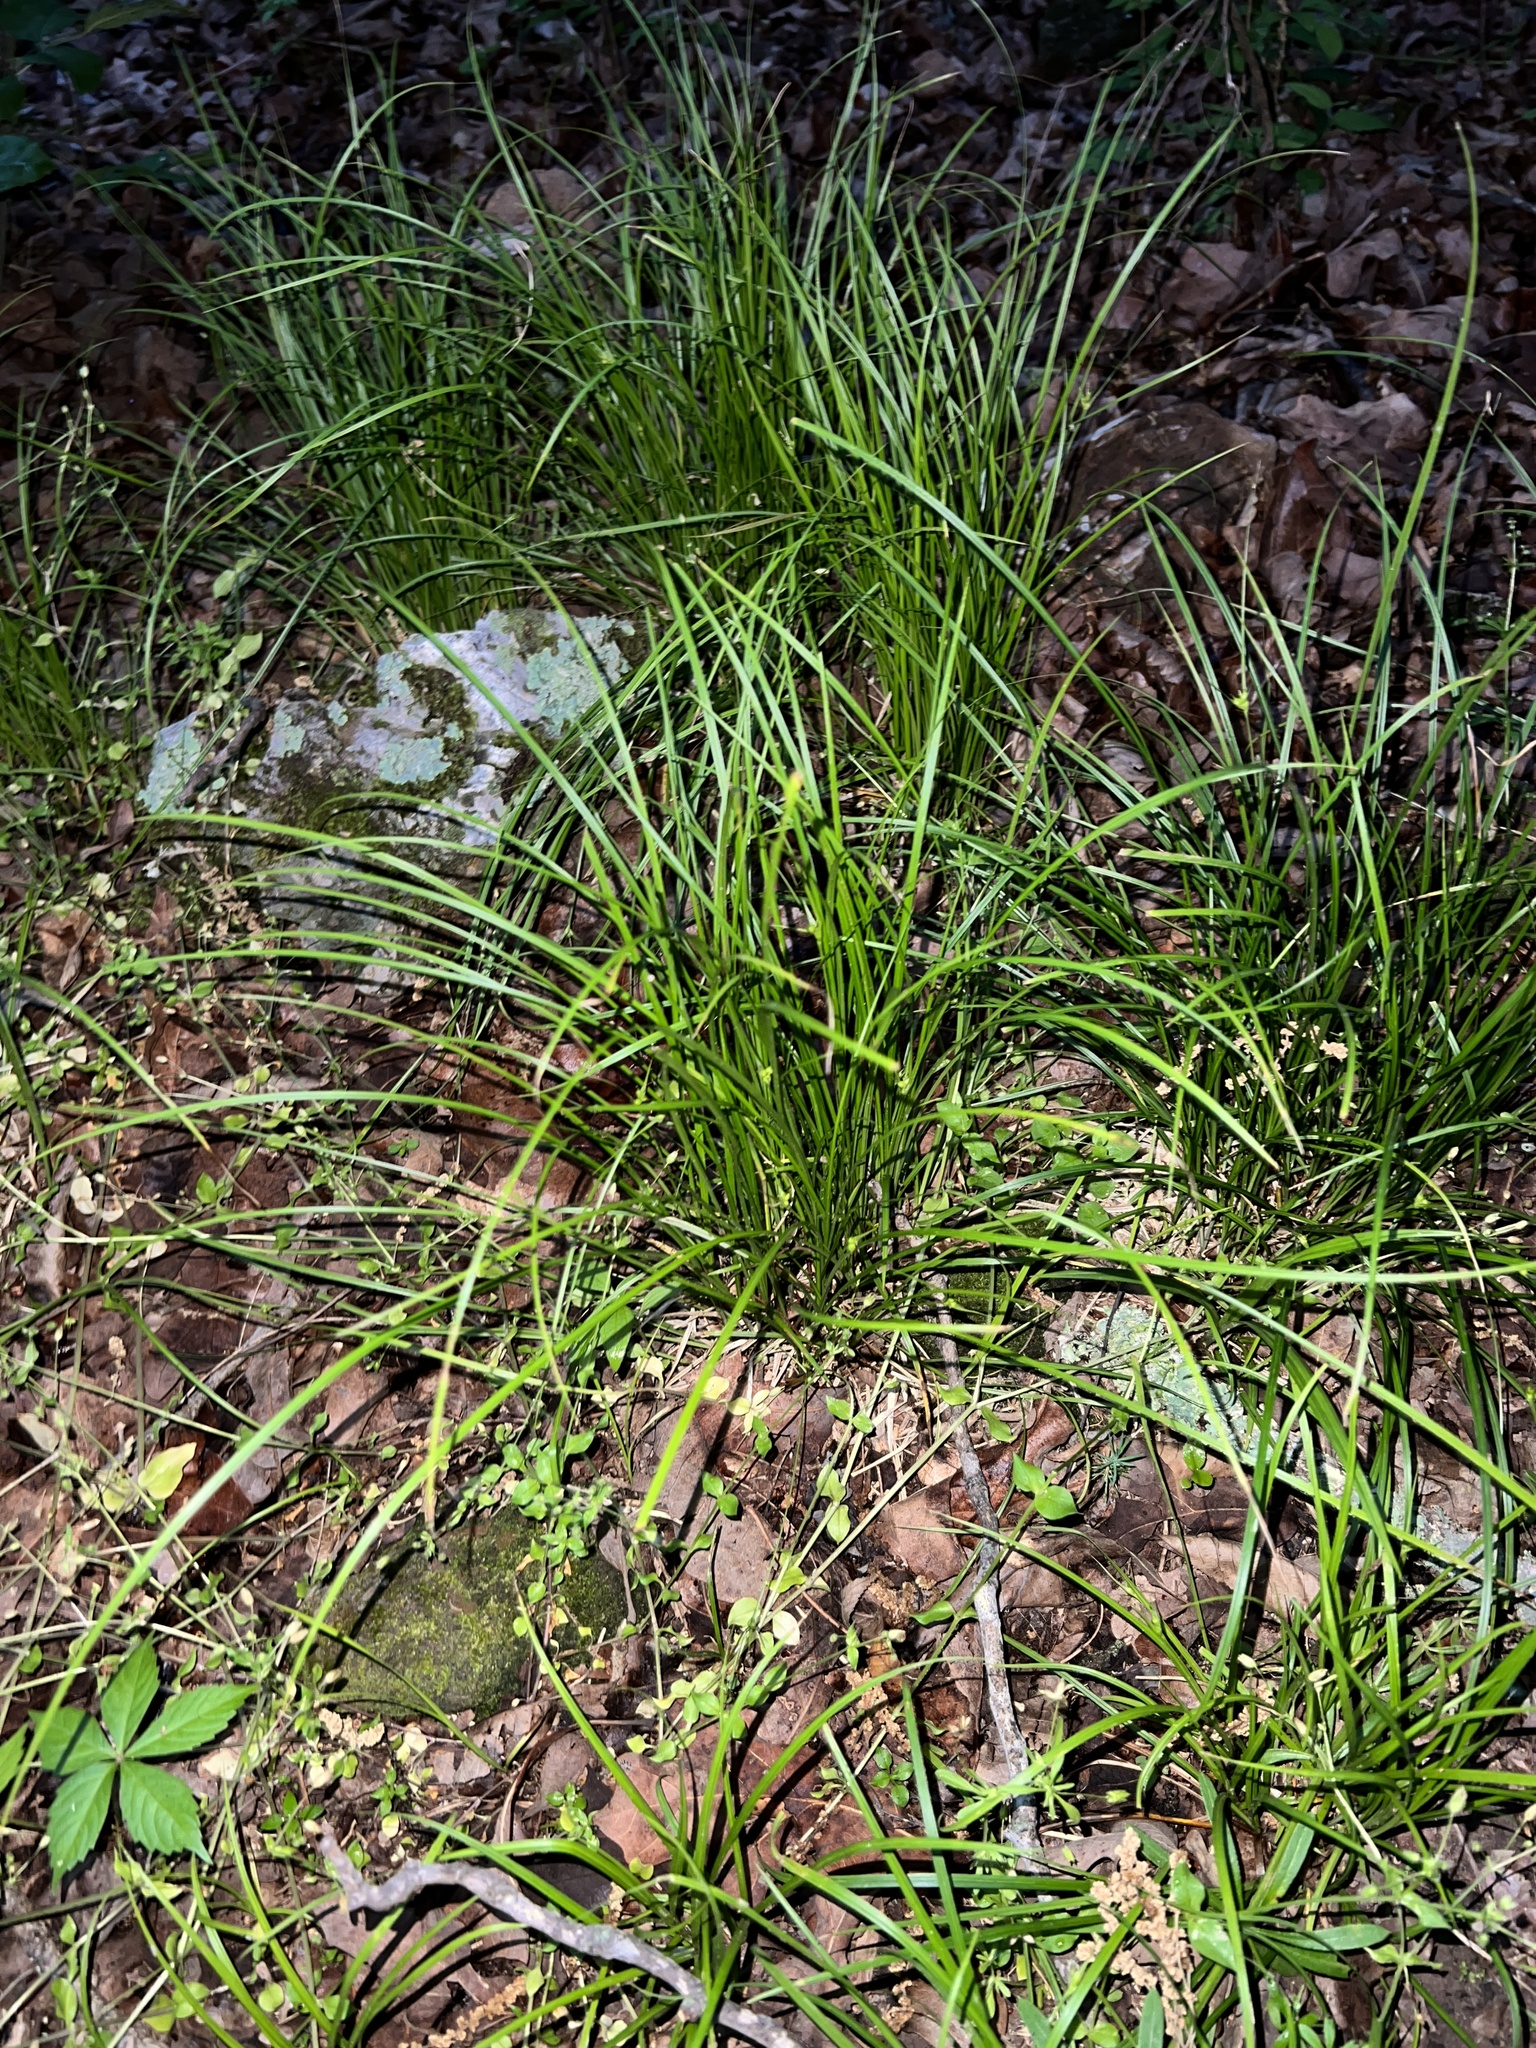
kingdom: Plantae
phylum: Tracheophyta
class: Liliopsida
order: Poales
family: Cyperaceae
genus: Carex
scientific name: Carex jamesii
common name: Grass sedge
